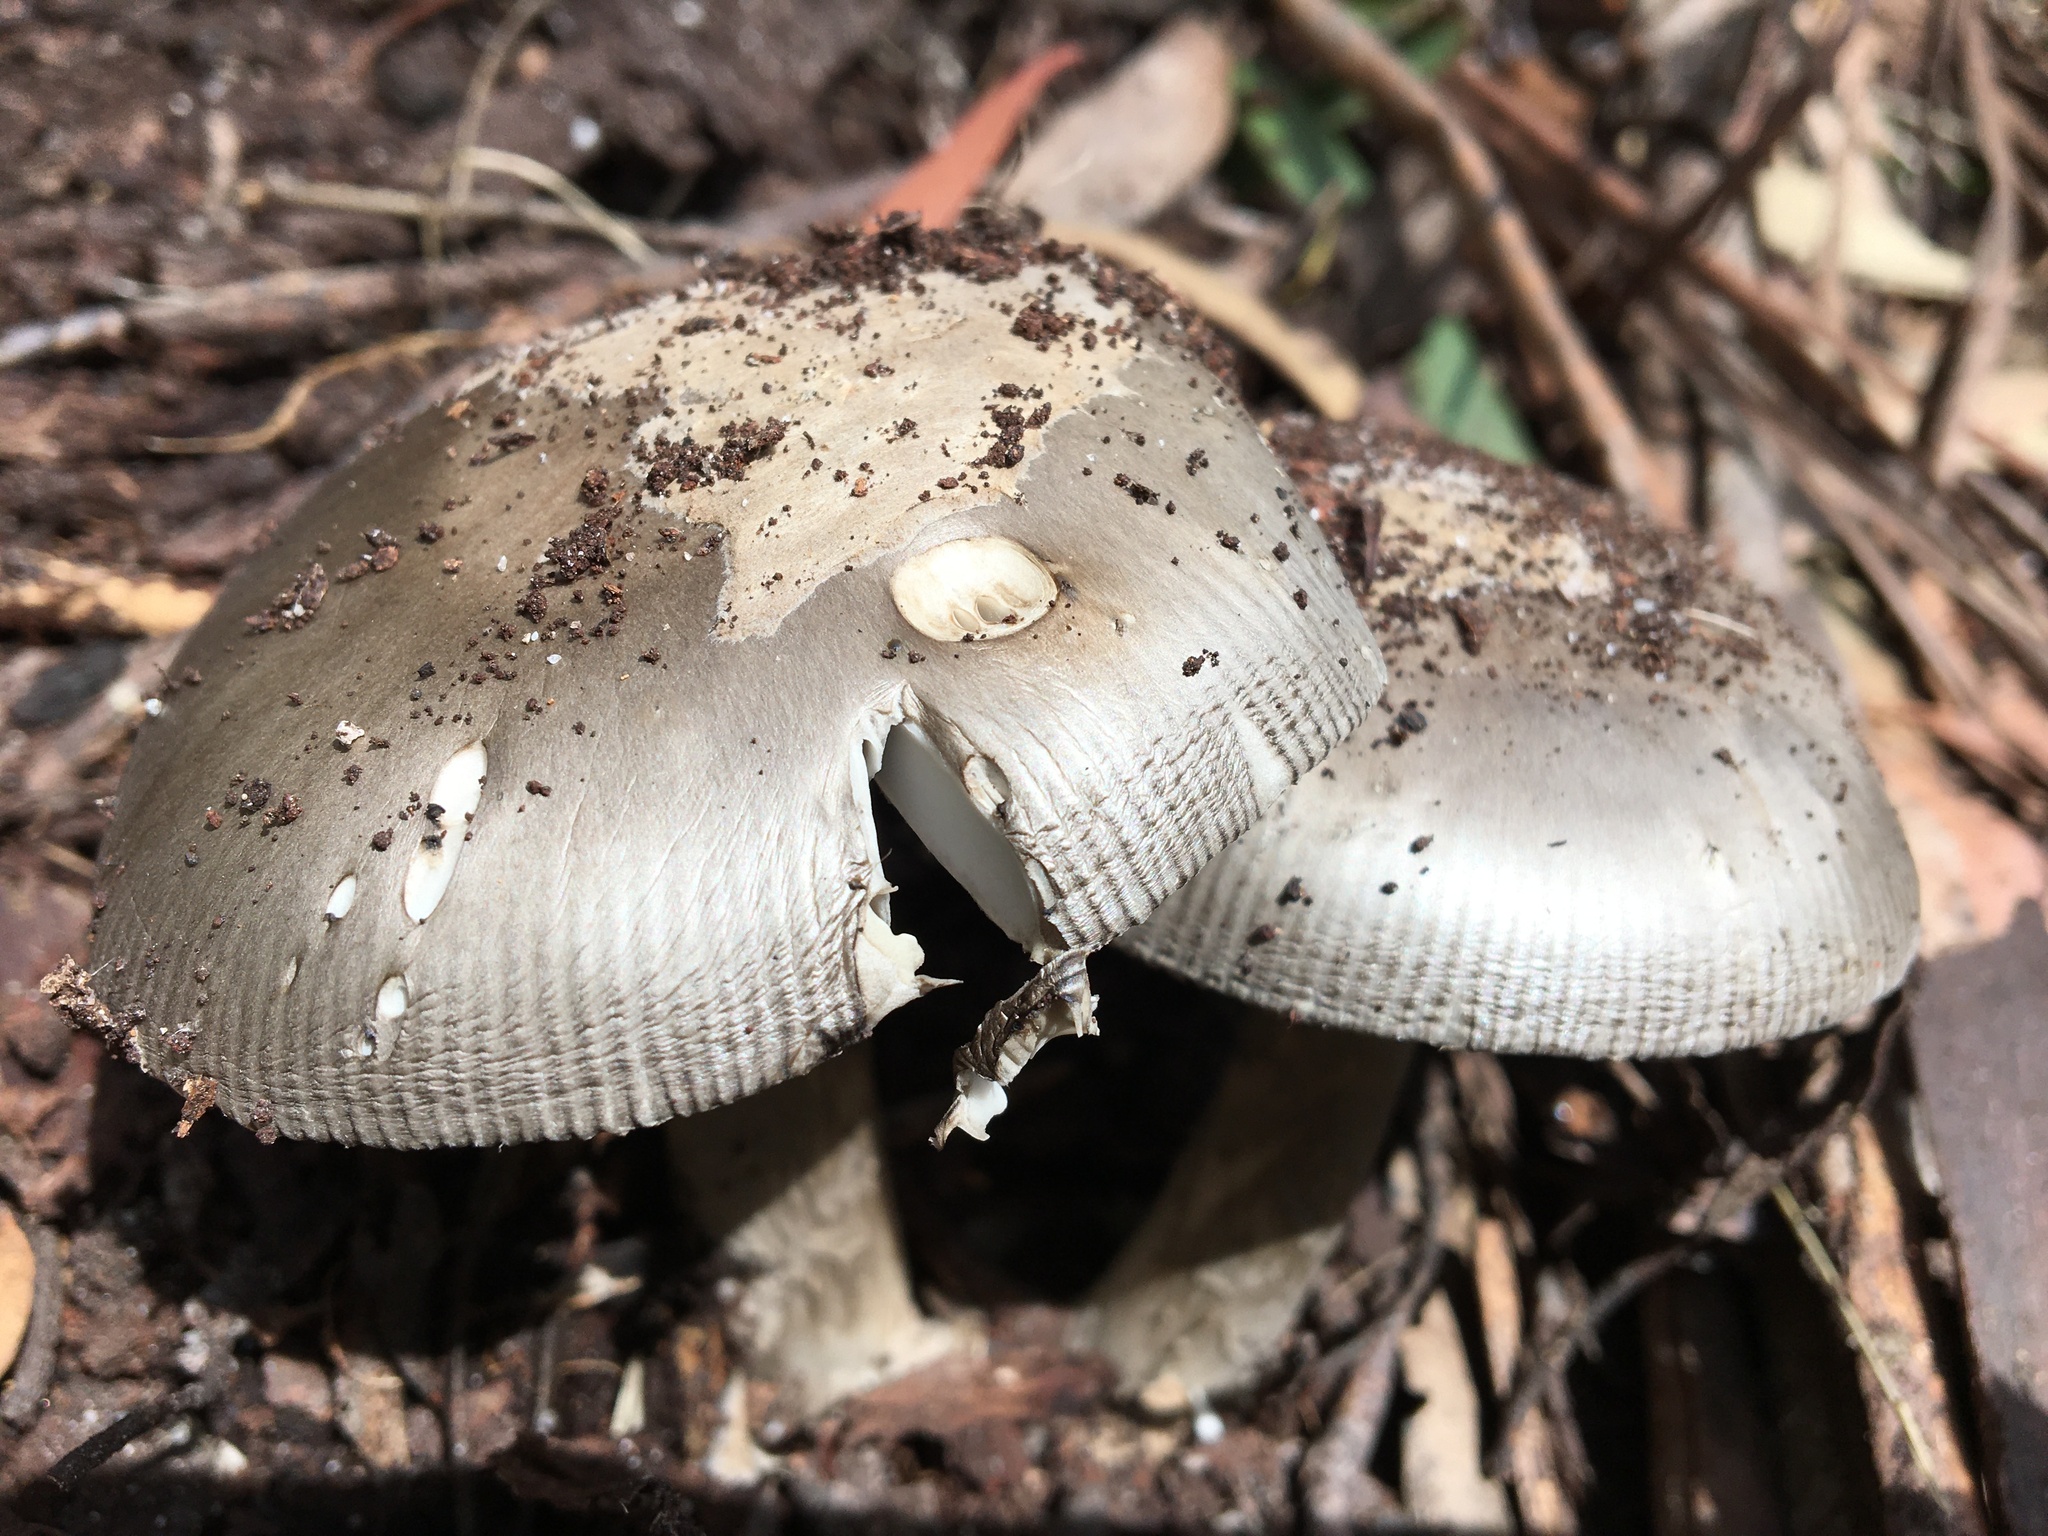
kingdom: Fungi
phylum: Basidiomycota
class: Agaricomycetes
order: Agaricales
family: Amanitaceae
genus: Amanita
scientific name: Amanita cheelii
